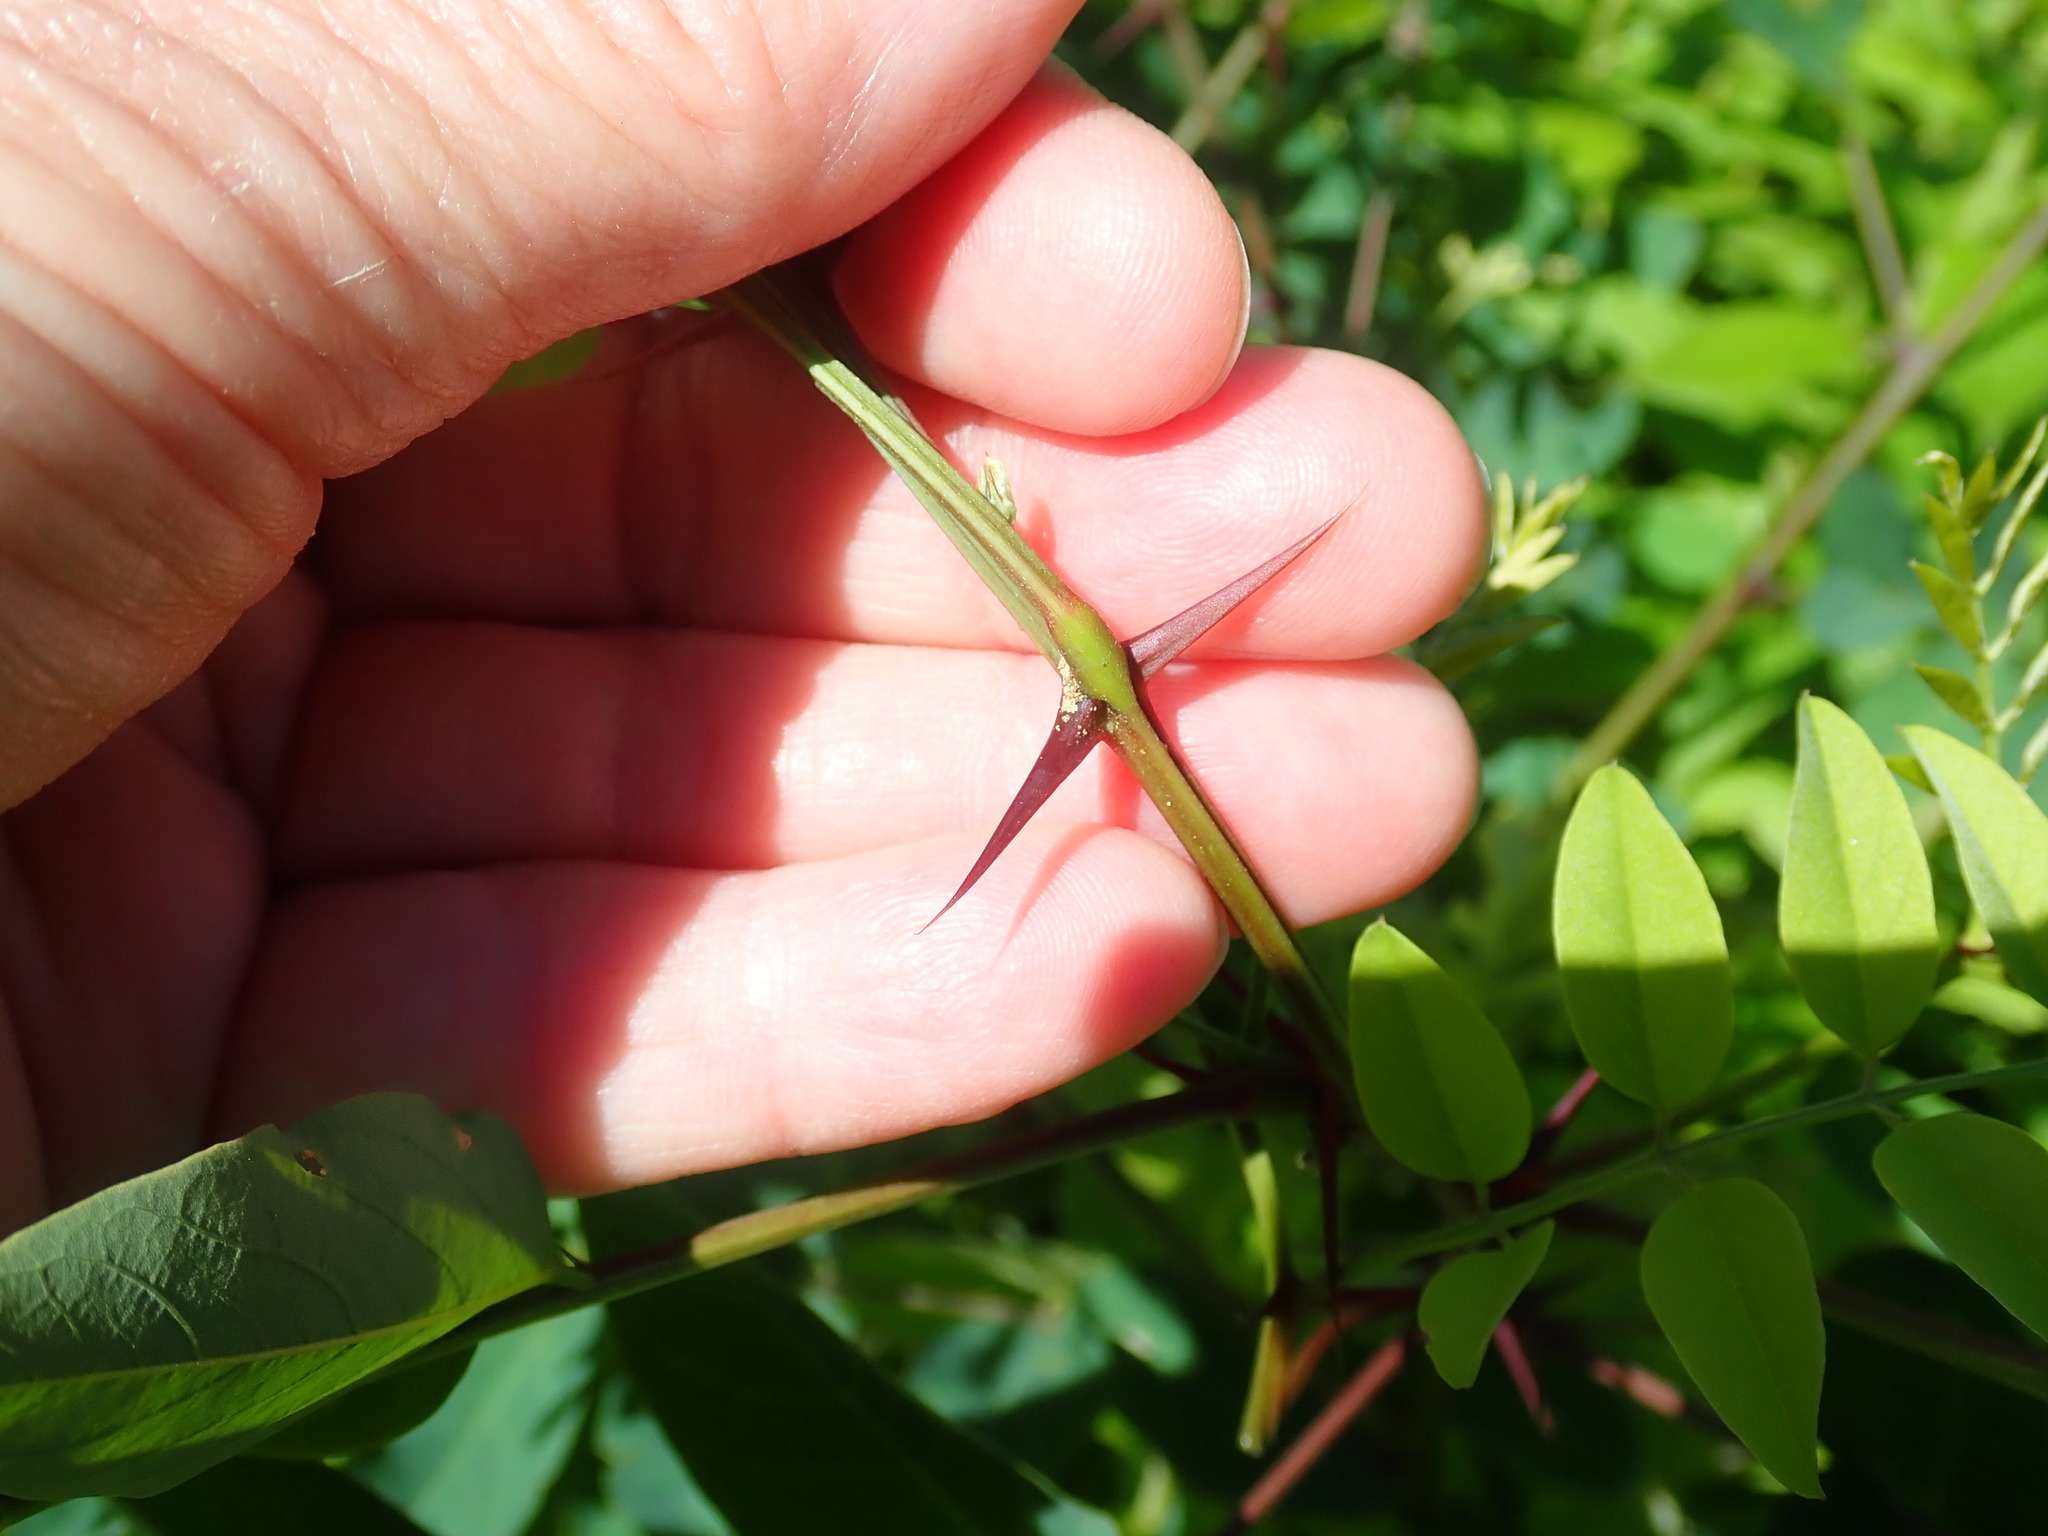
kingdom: Plantae
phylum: Tracheophyta
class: Magnoliopsida
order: Fabales
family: Fabaceae
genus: Robinia
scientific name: Robinia pseudoacacia
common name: Black locust
